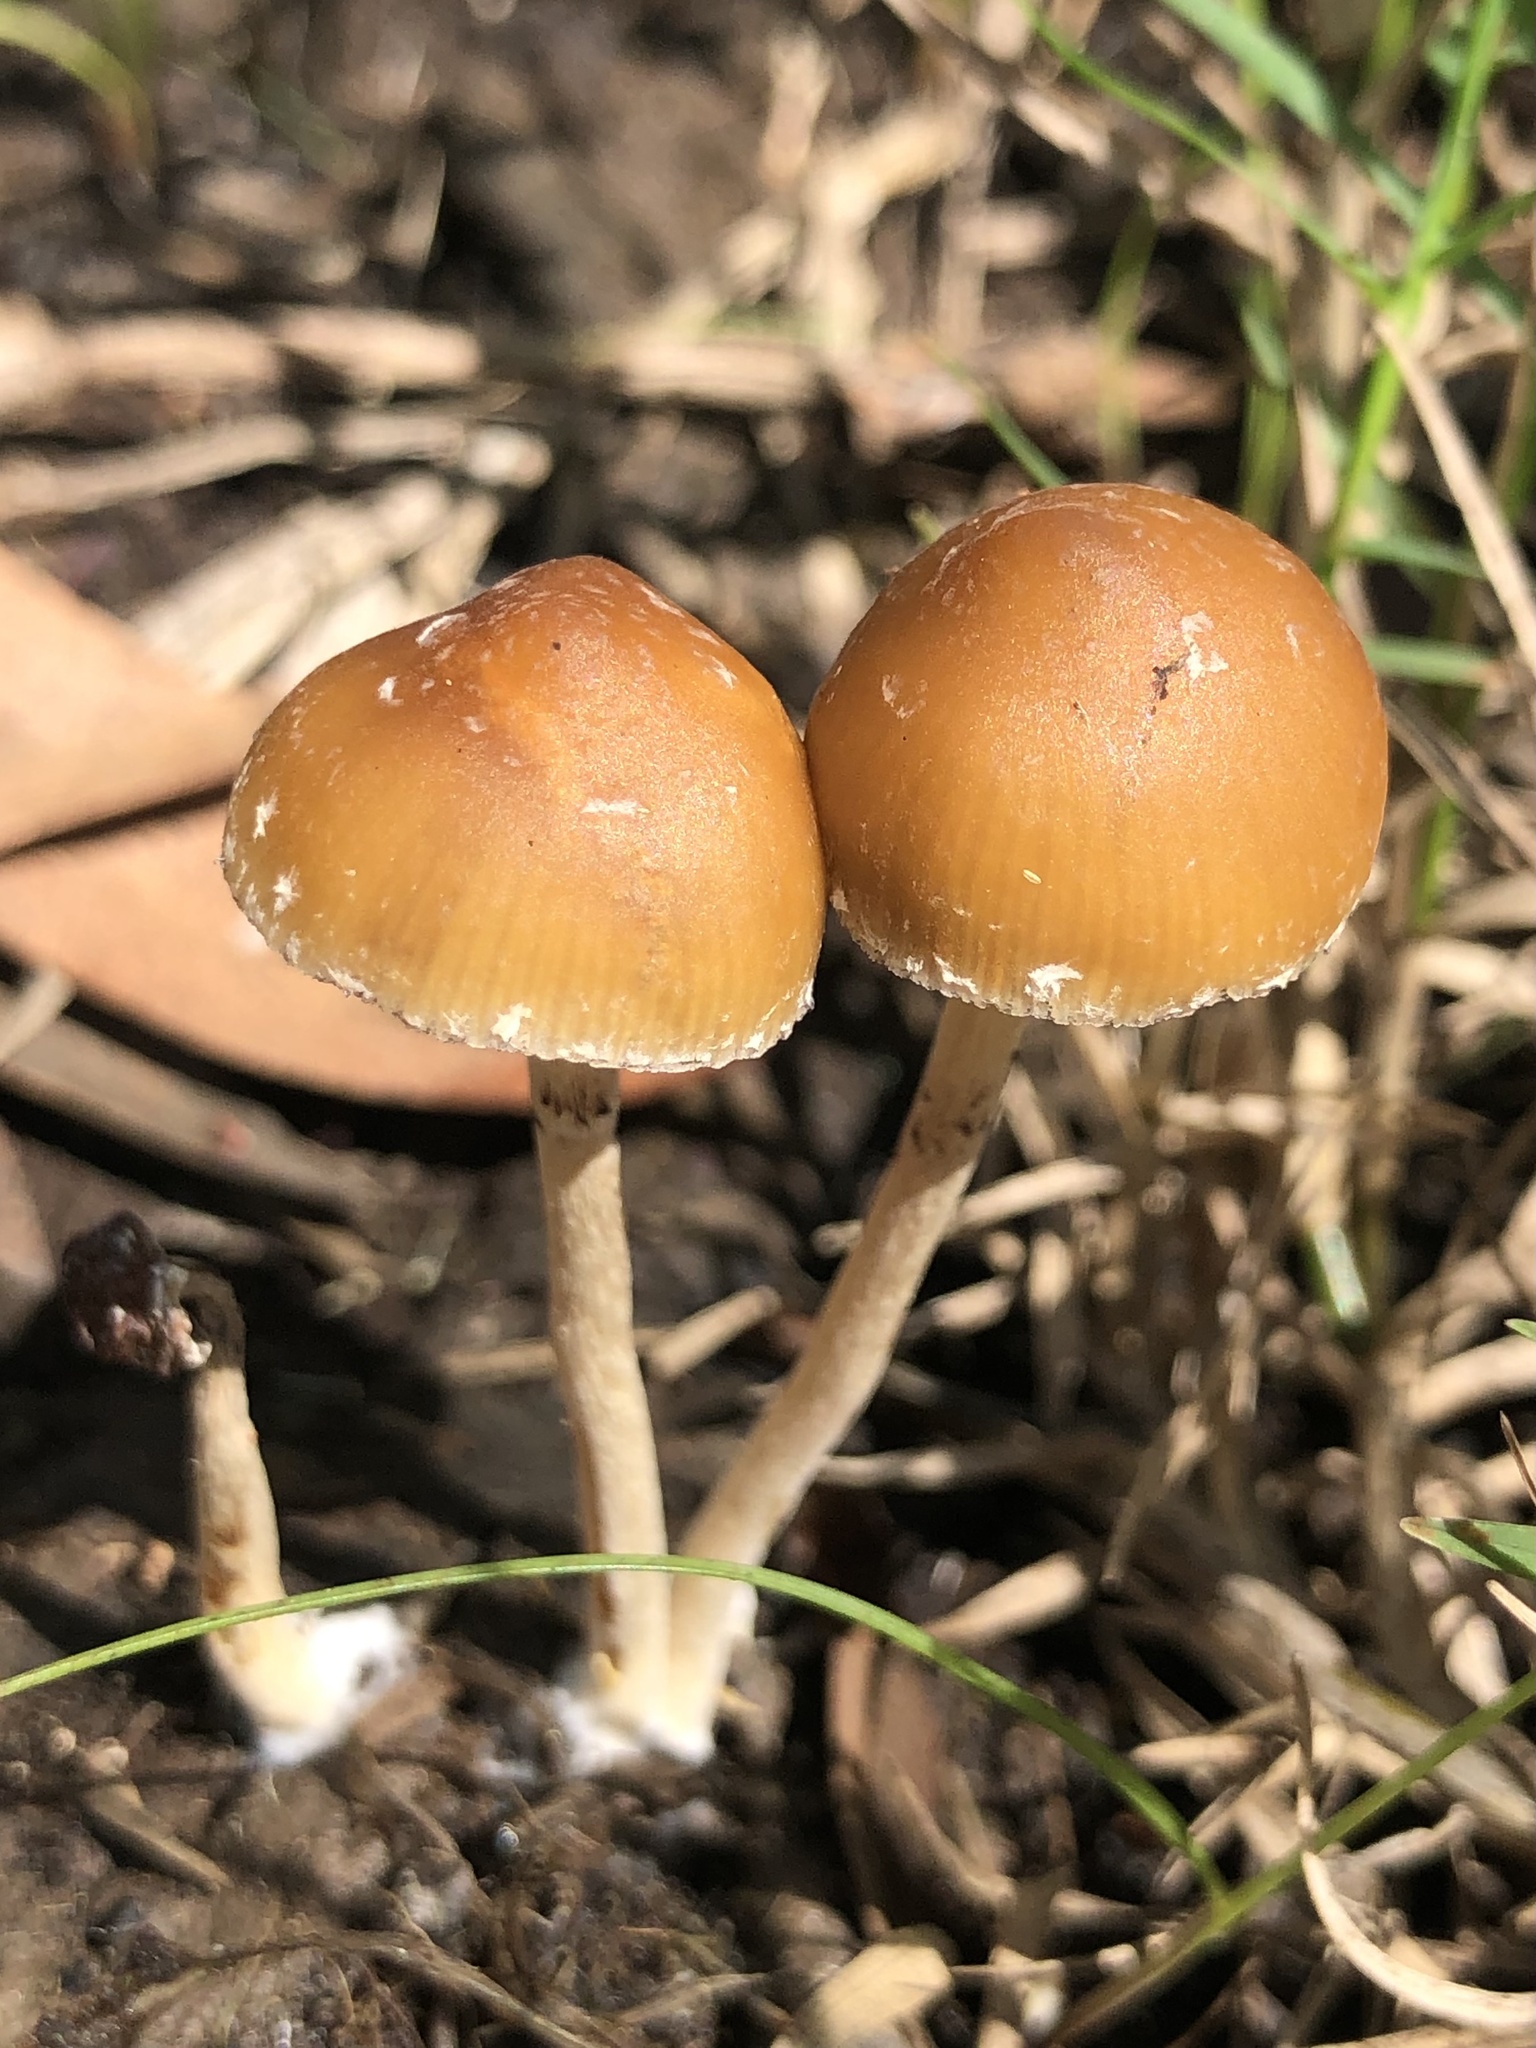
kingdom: Fungi
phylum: Basidiomycota
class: Agaricomycetes
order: Agaricales
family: Hymenogastraceae
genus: Psilocybe
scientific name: Psilocybe samuiensis
